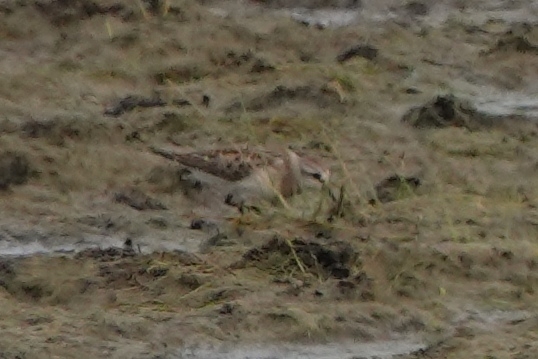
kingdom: Animalia
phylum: Chordata
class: Aves
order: Charadriiformes
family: Scolopacidae
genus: Calidris
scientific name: Calidris ruficollis
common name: Red-necked stint
